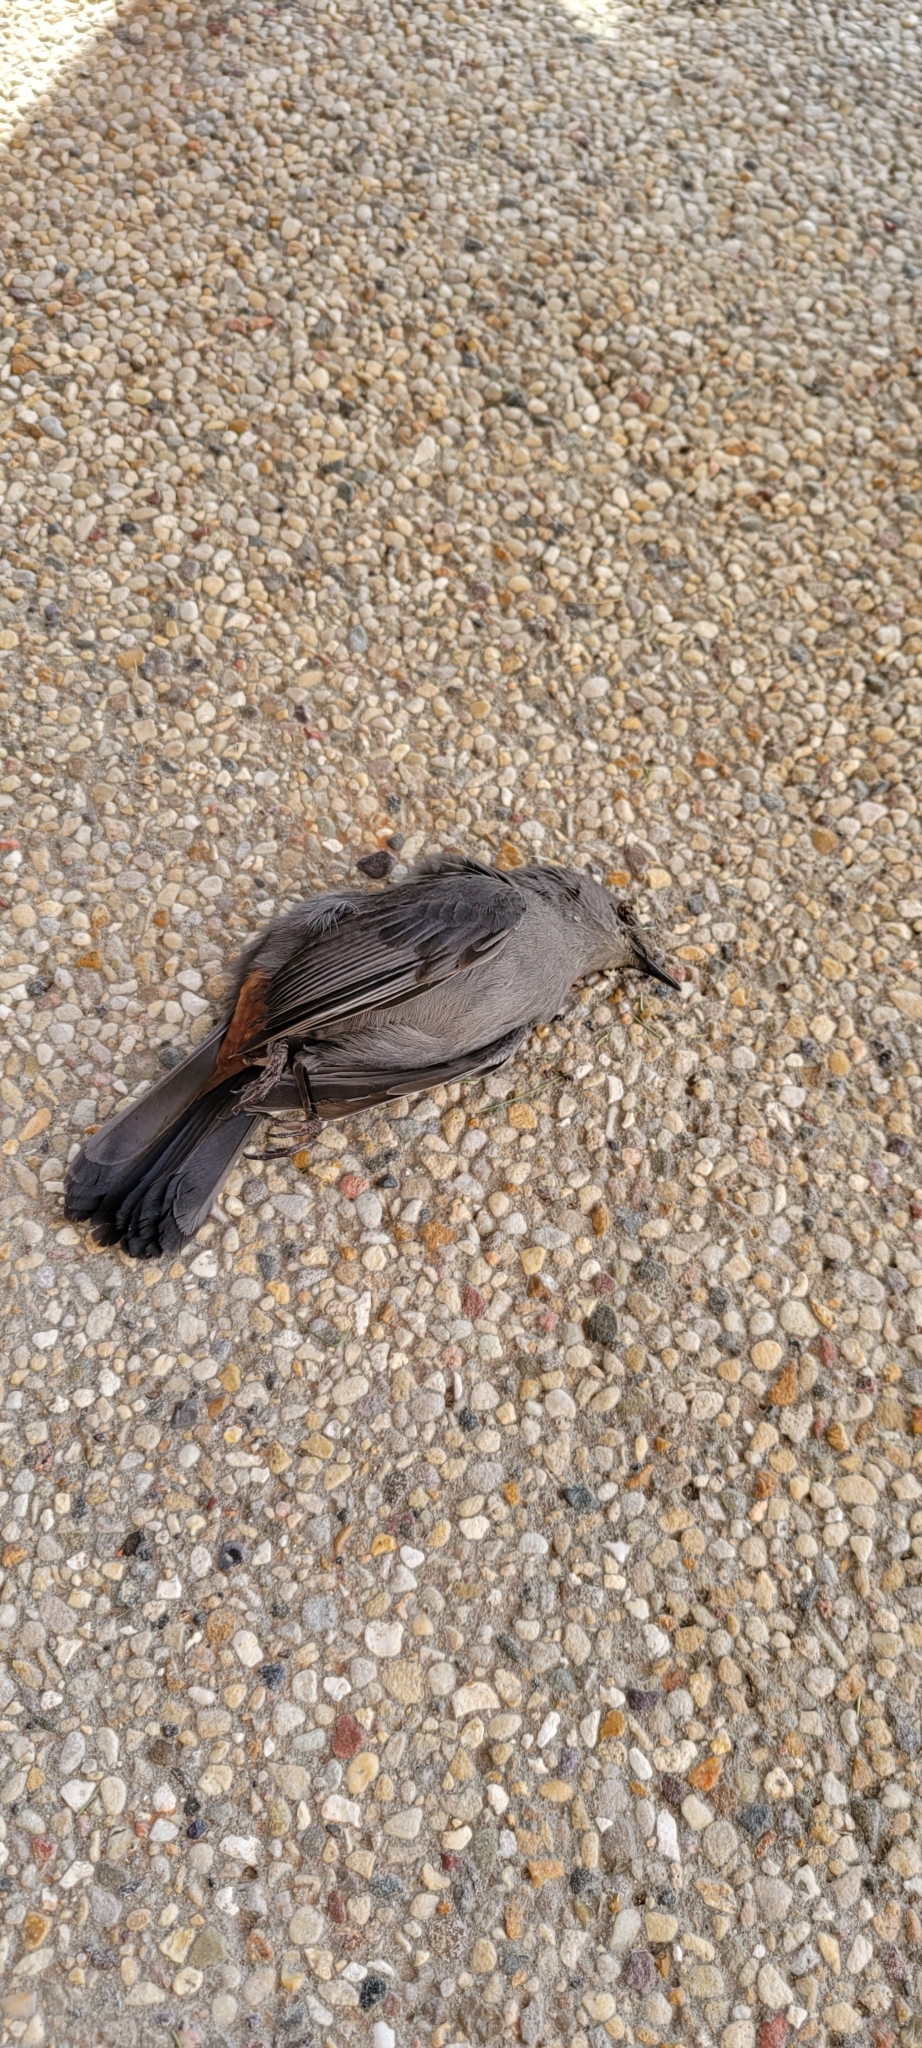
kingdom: Animalia
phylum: Chordata
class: Aves
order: Passeriformes
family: Mimidae
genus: Dumetella
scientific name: Dumetella carolinensis
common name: Gray catbird
